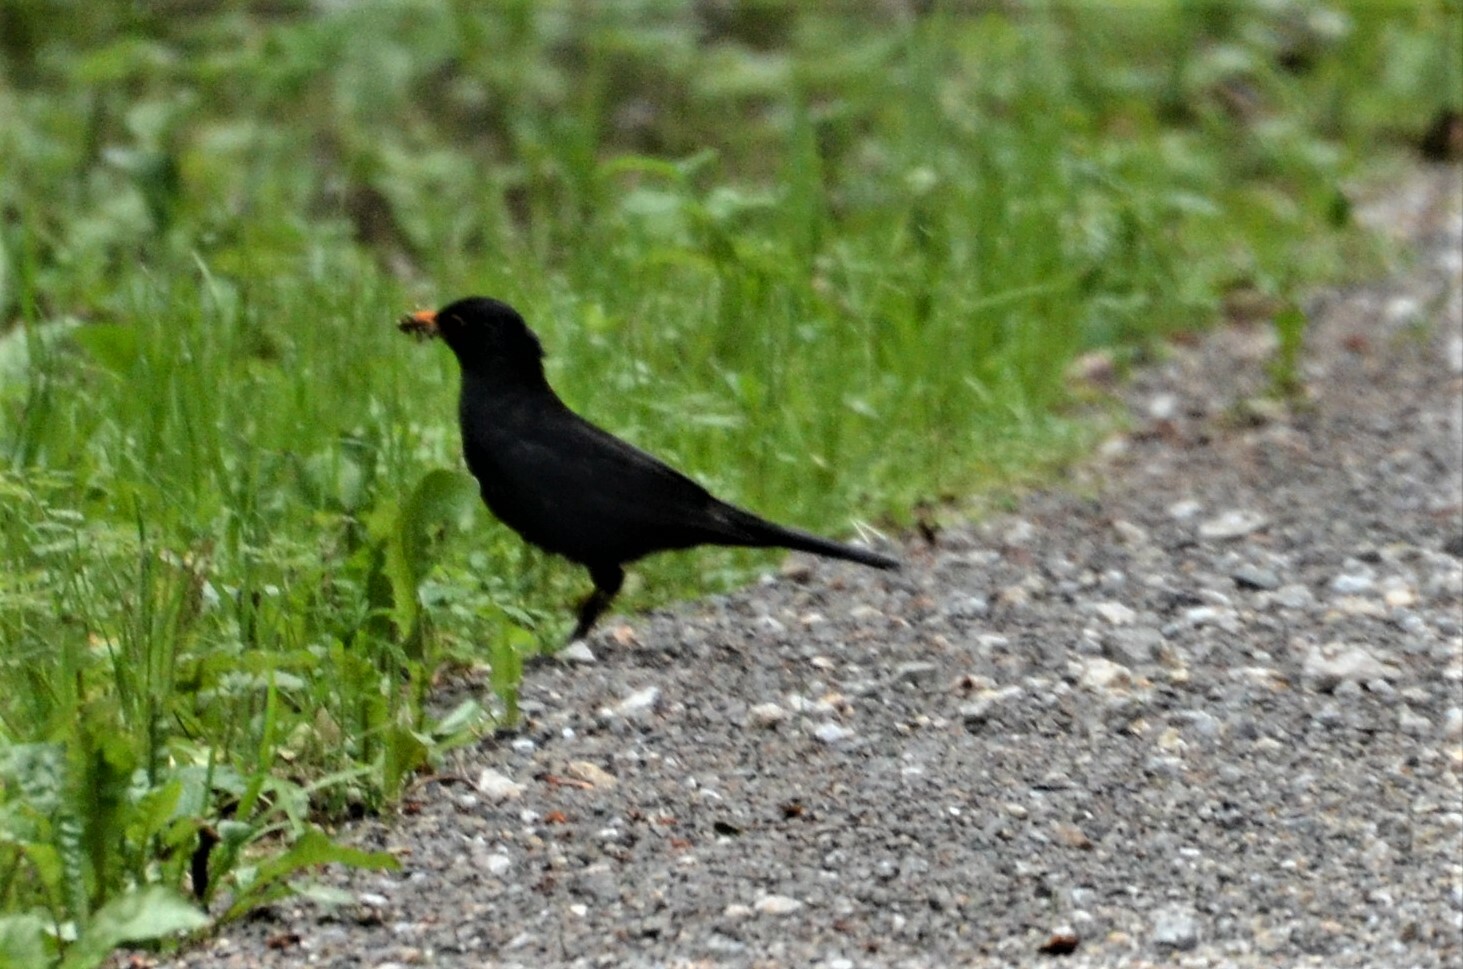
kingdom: Animalia
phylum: Chordata
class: Aves
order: Passeriformes
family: Turdidae
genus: Turdus
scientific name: Turdus merula
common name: Common blackbird
